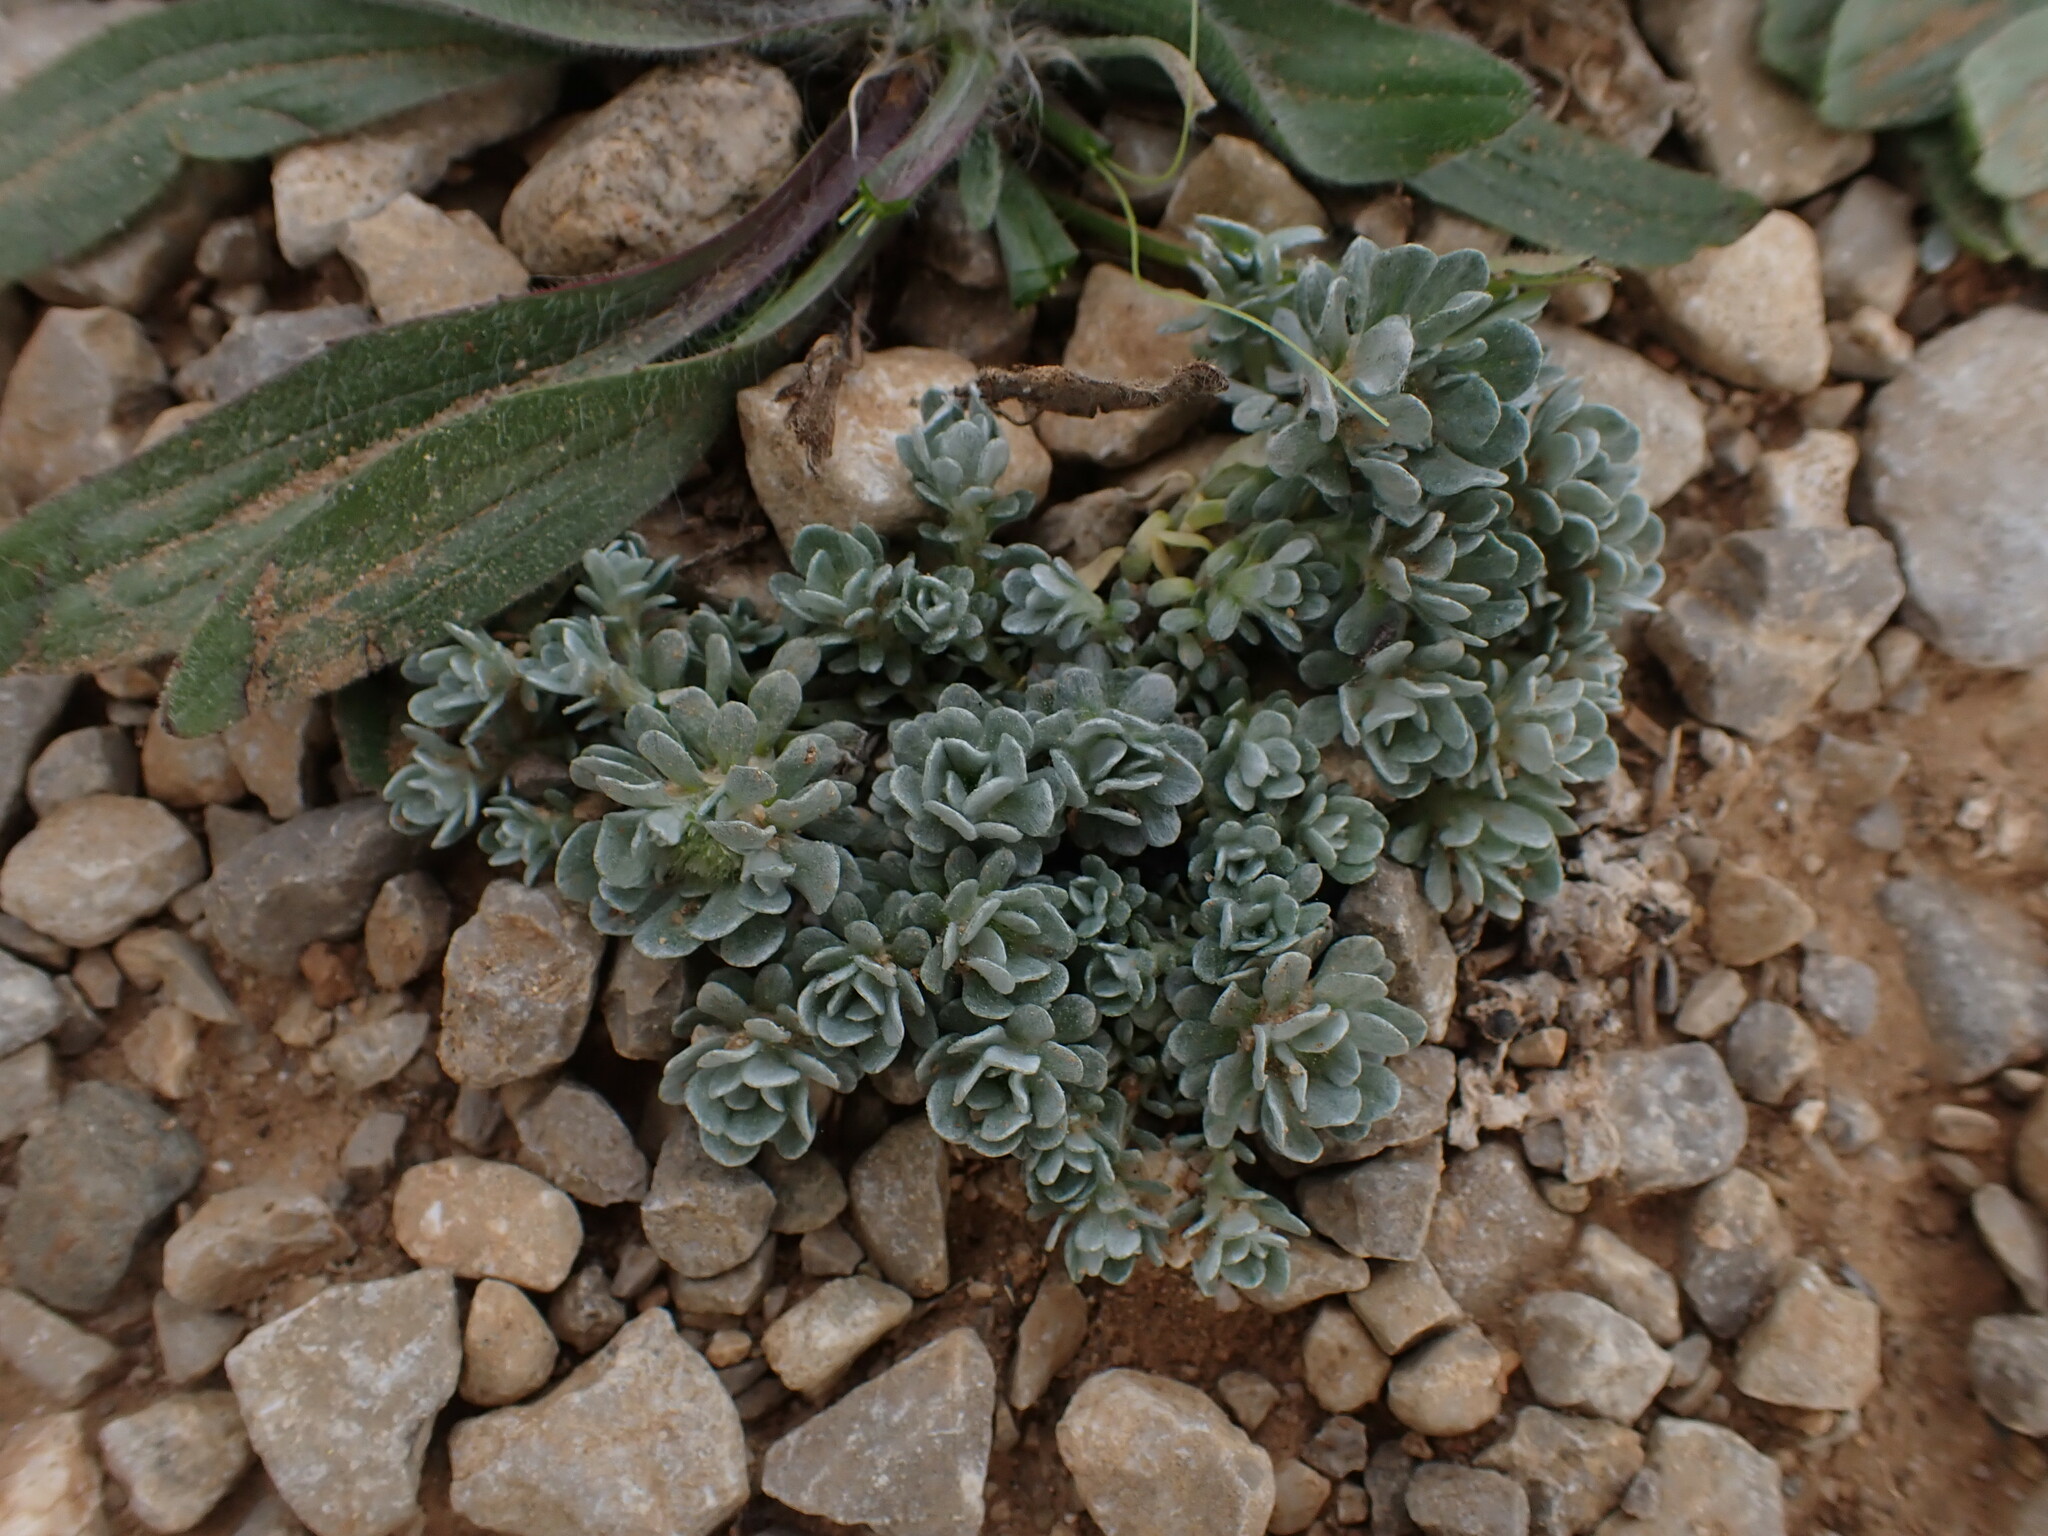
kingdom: Plantae
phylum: Tracheophyta
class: Magnoliopsida
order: Asterales
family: Asteraceae
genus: Filago
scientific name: Filago pygmaea
